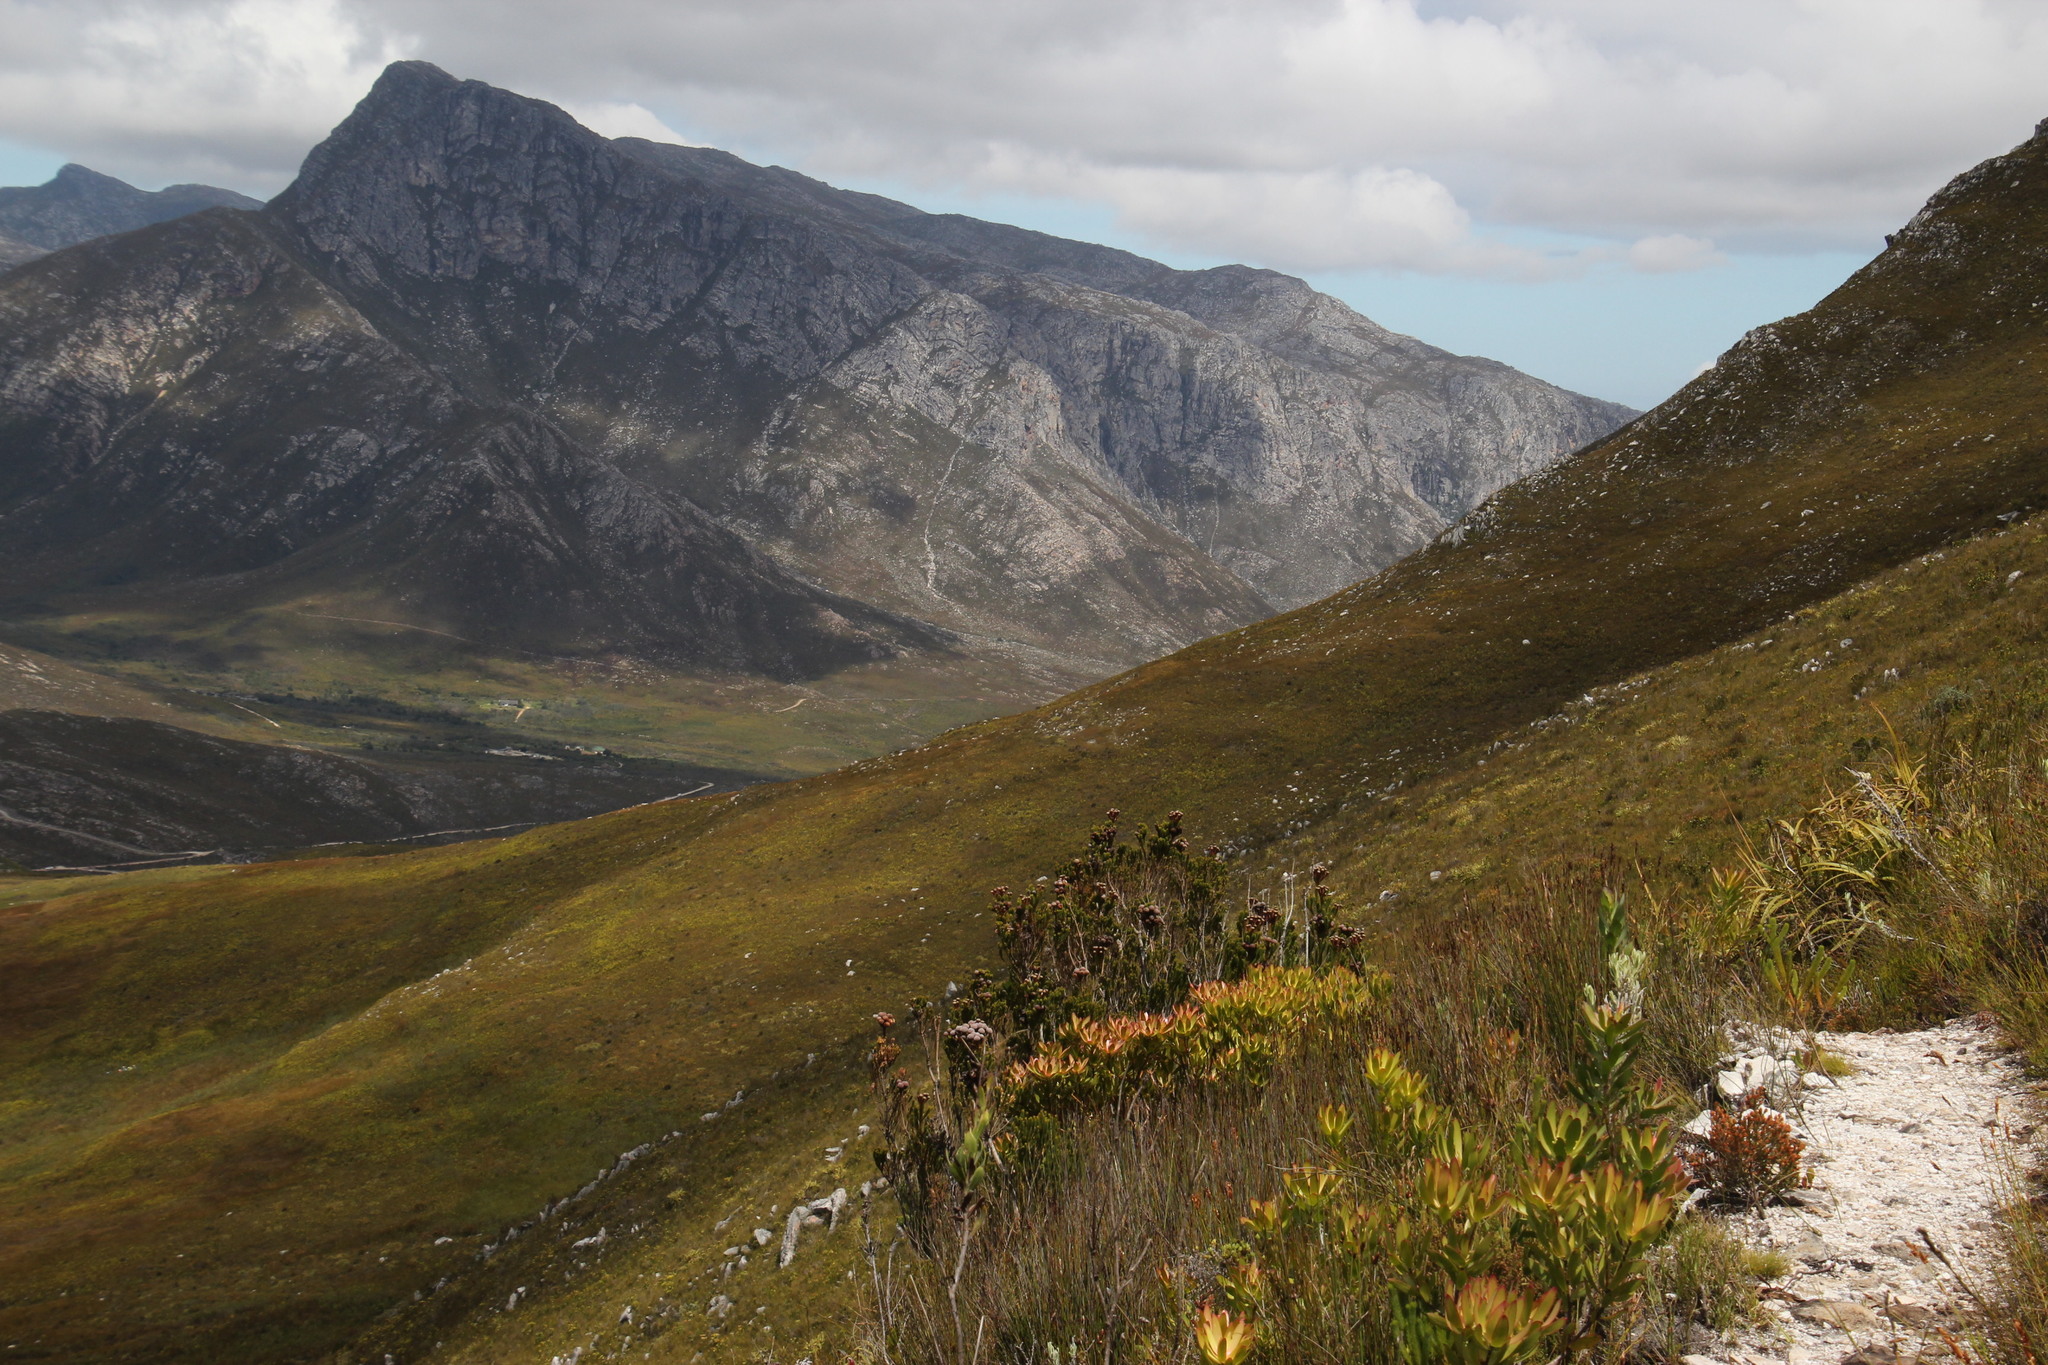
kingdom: Plantae
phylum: Tracheophyta
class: Magnoliopsida
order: Bruniales
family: Bruniaceae
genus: Berzelia
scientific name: Berzelia stokoei
